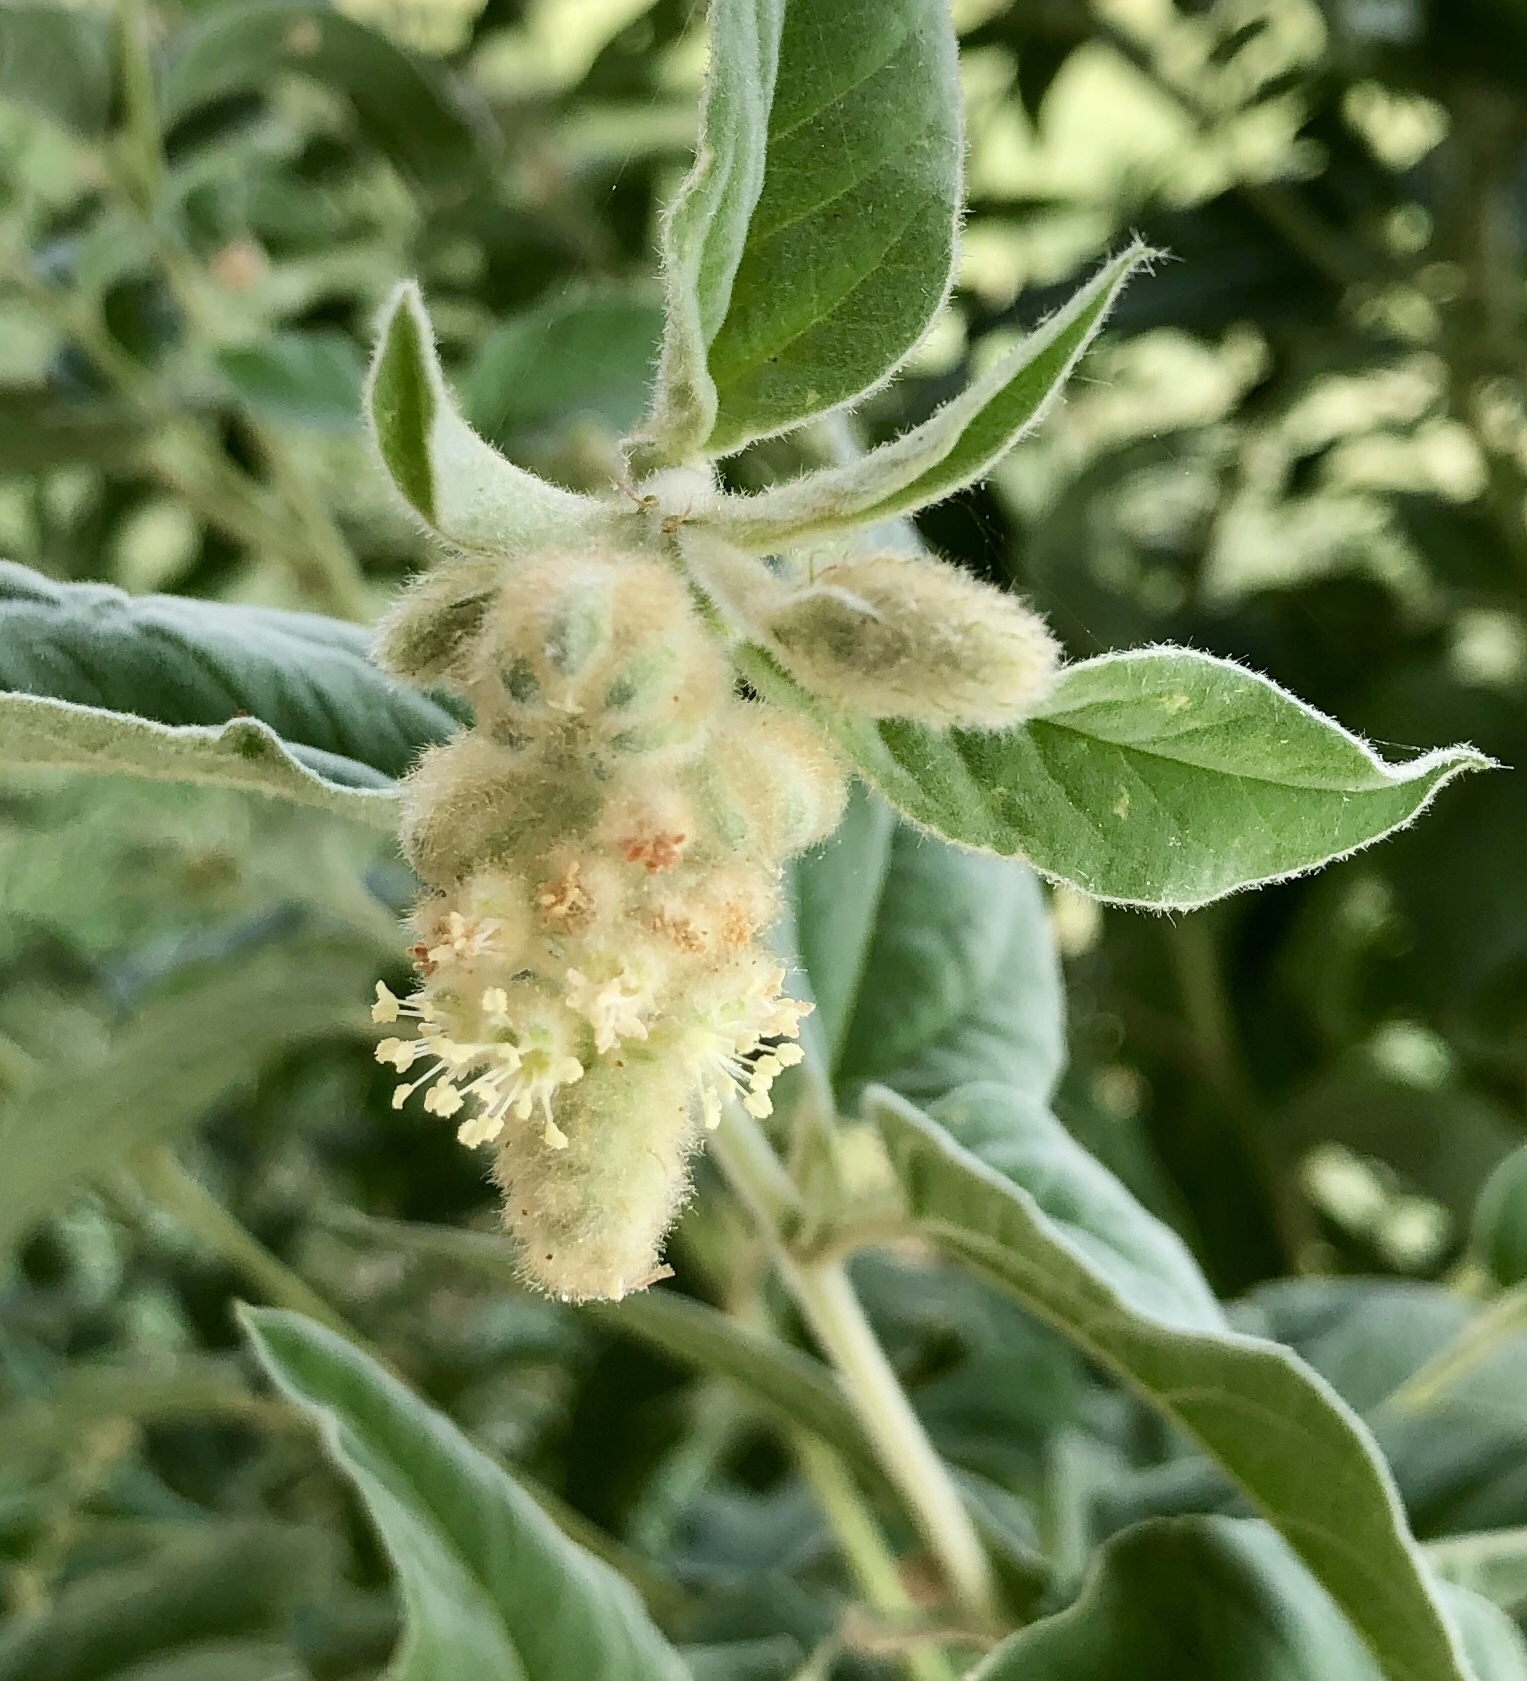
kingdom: Plantae
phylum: Tracheophyta
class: Magnoliopsida
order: Malpighiales
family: Euphorbiaceae
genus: Croton
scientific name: Croton lindheimeri
